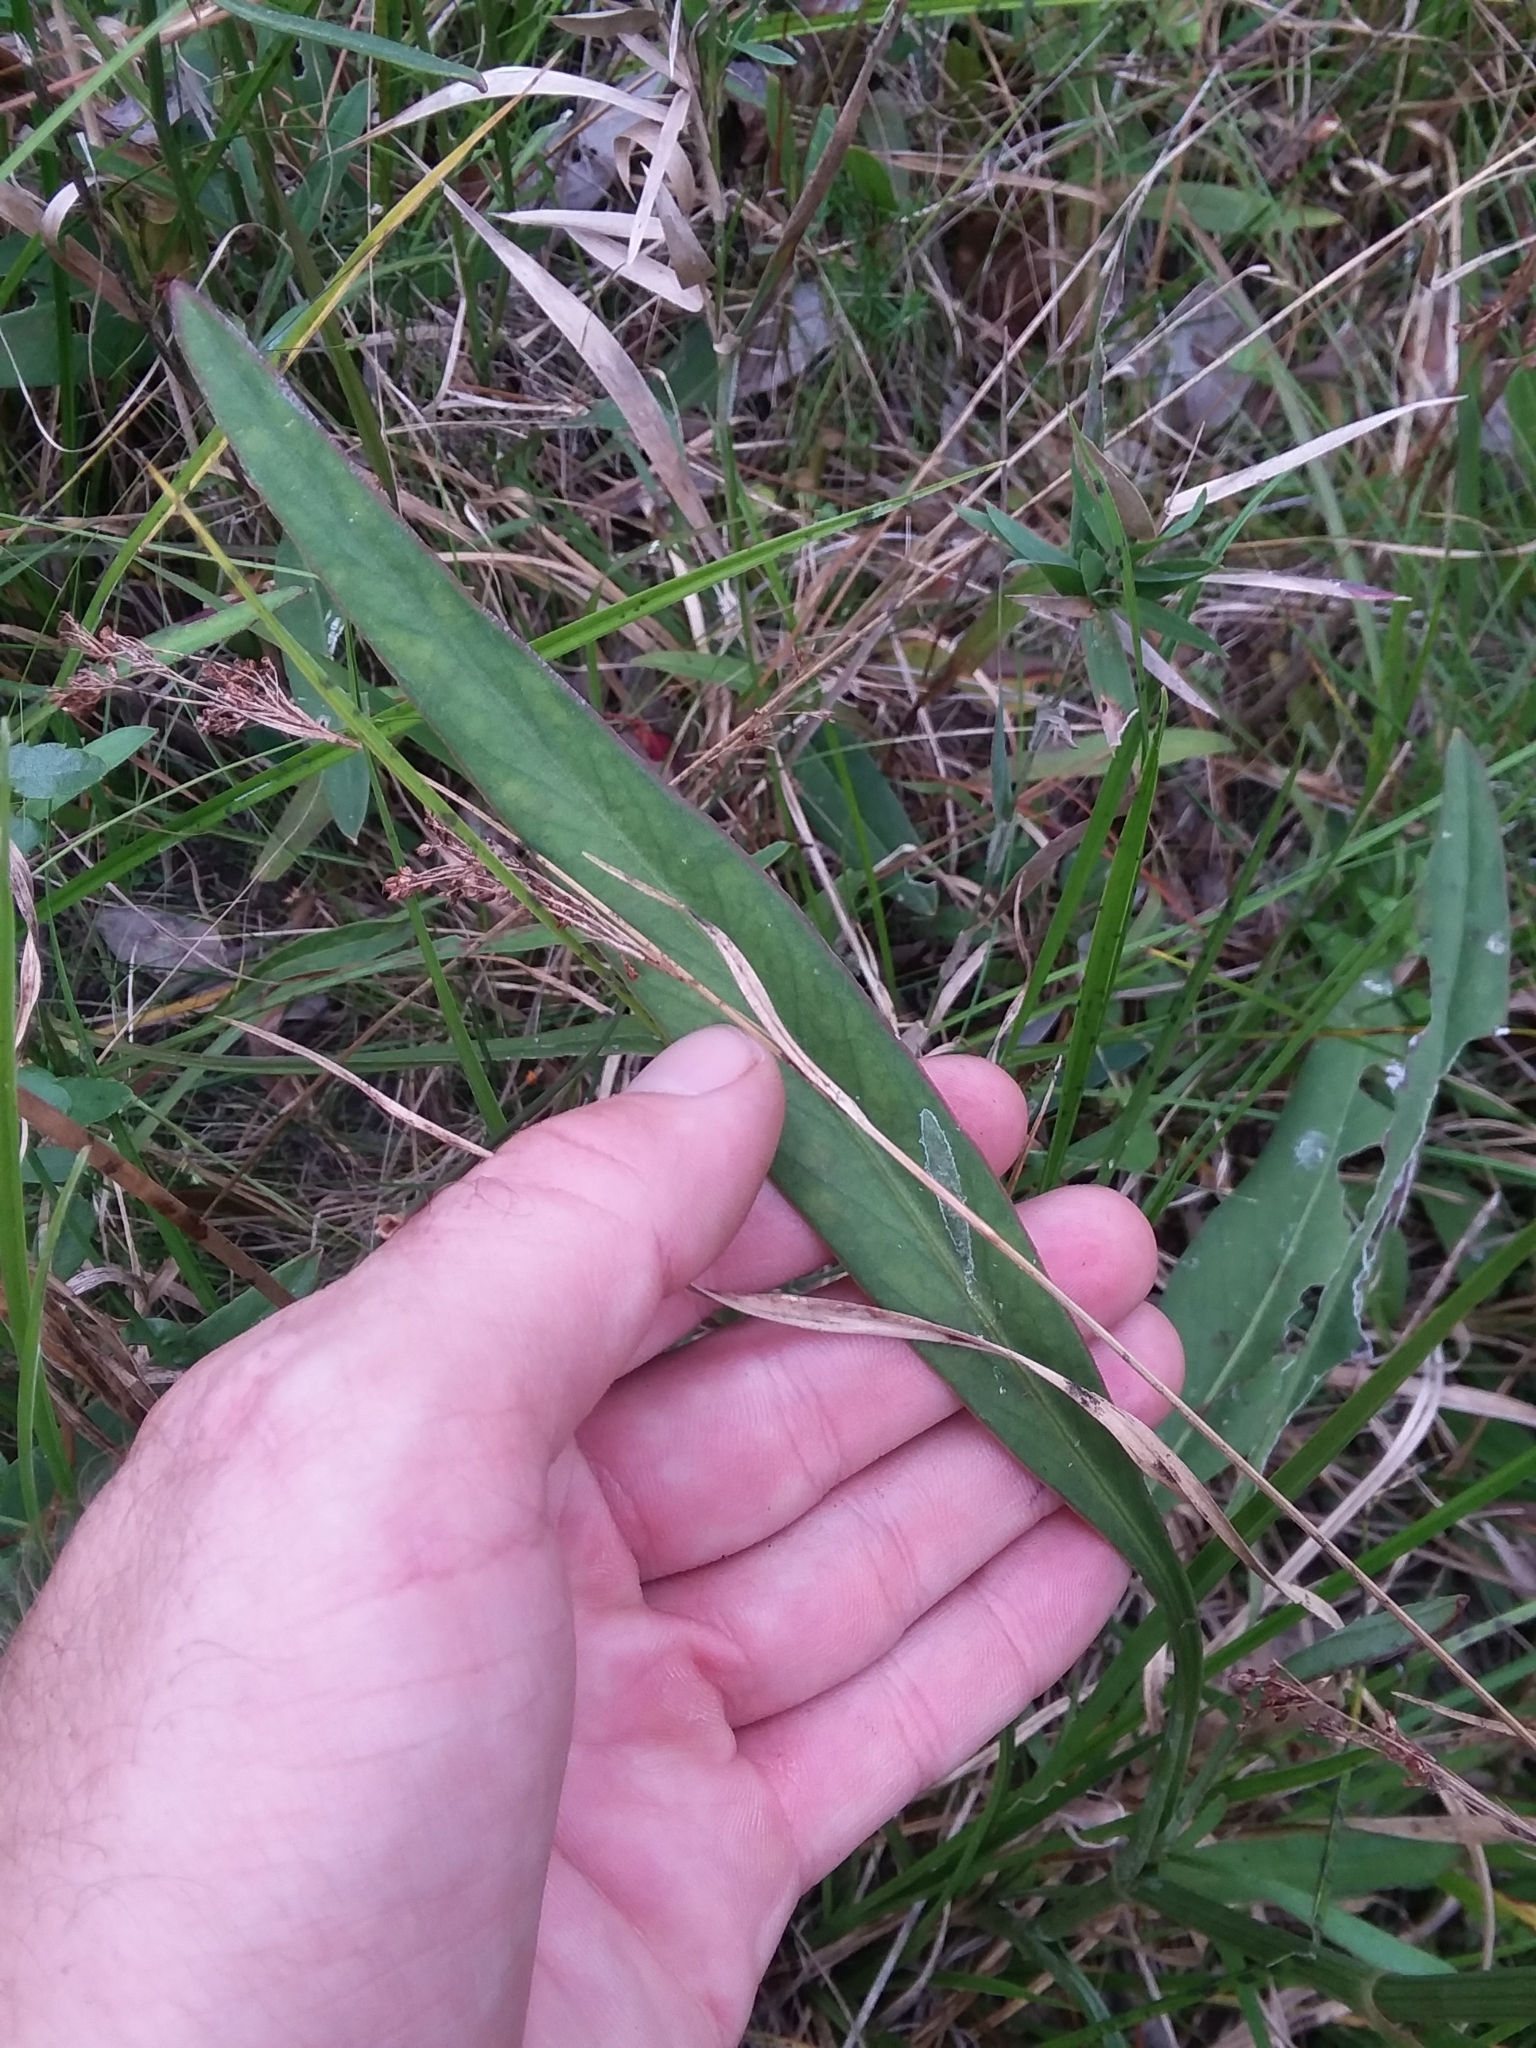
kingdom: Plantae
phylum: Tracheophyta
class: Magnoliopsida
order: Asterales
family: Asteraceae
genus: Coreopsis
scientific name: Coreopsis gladiata
